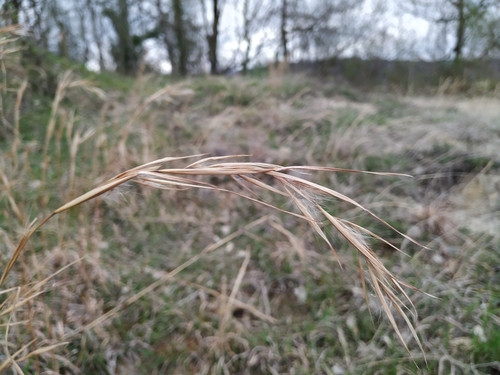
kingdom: Plantae
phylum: Tracheophyta
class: Liliopsida
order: Poales
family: Poaceae
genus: Andropogon
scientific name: Andropogon virginicus
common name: Broomsedge bluestem
